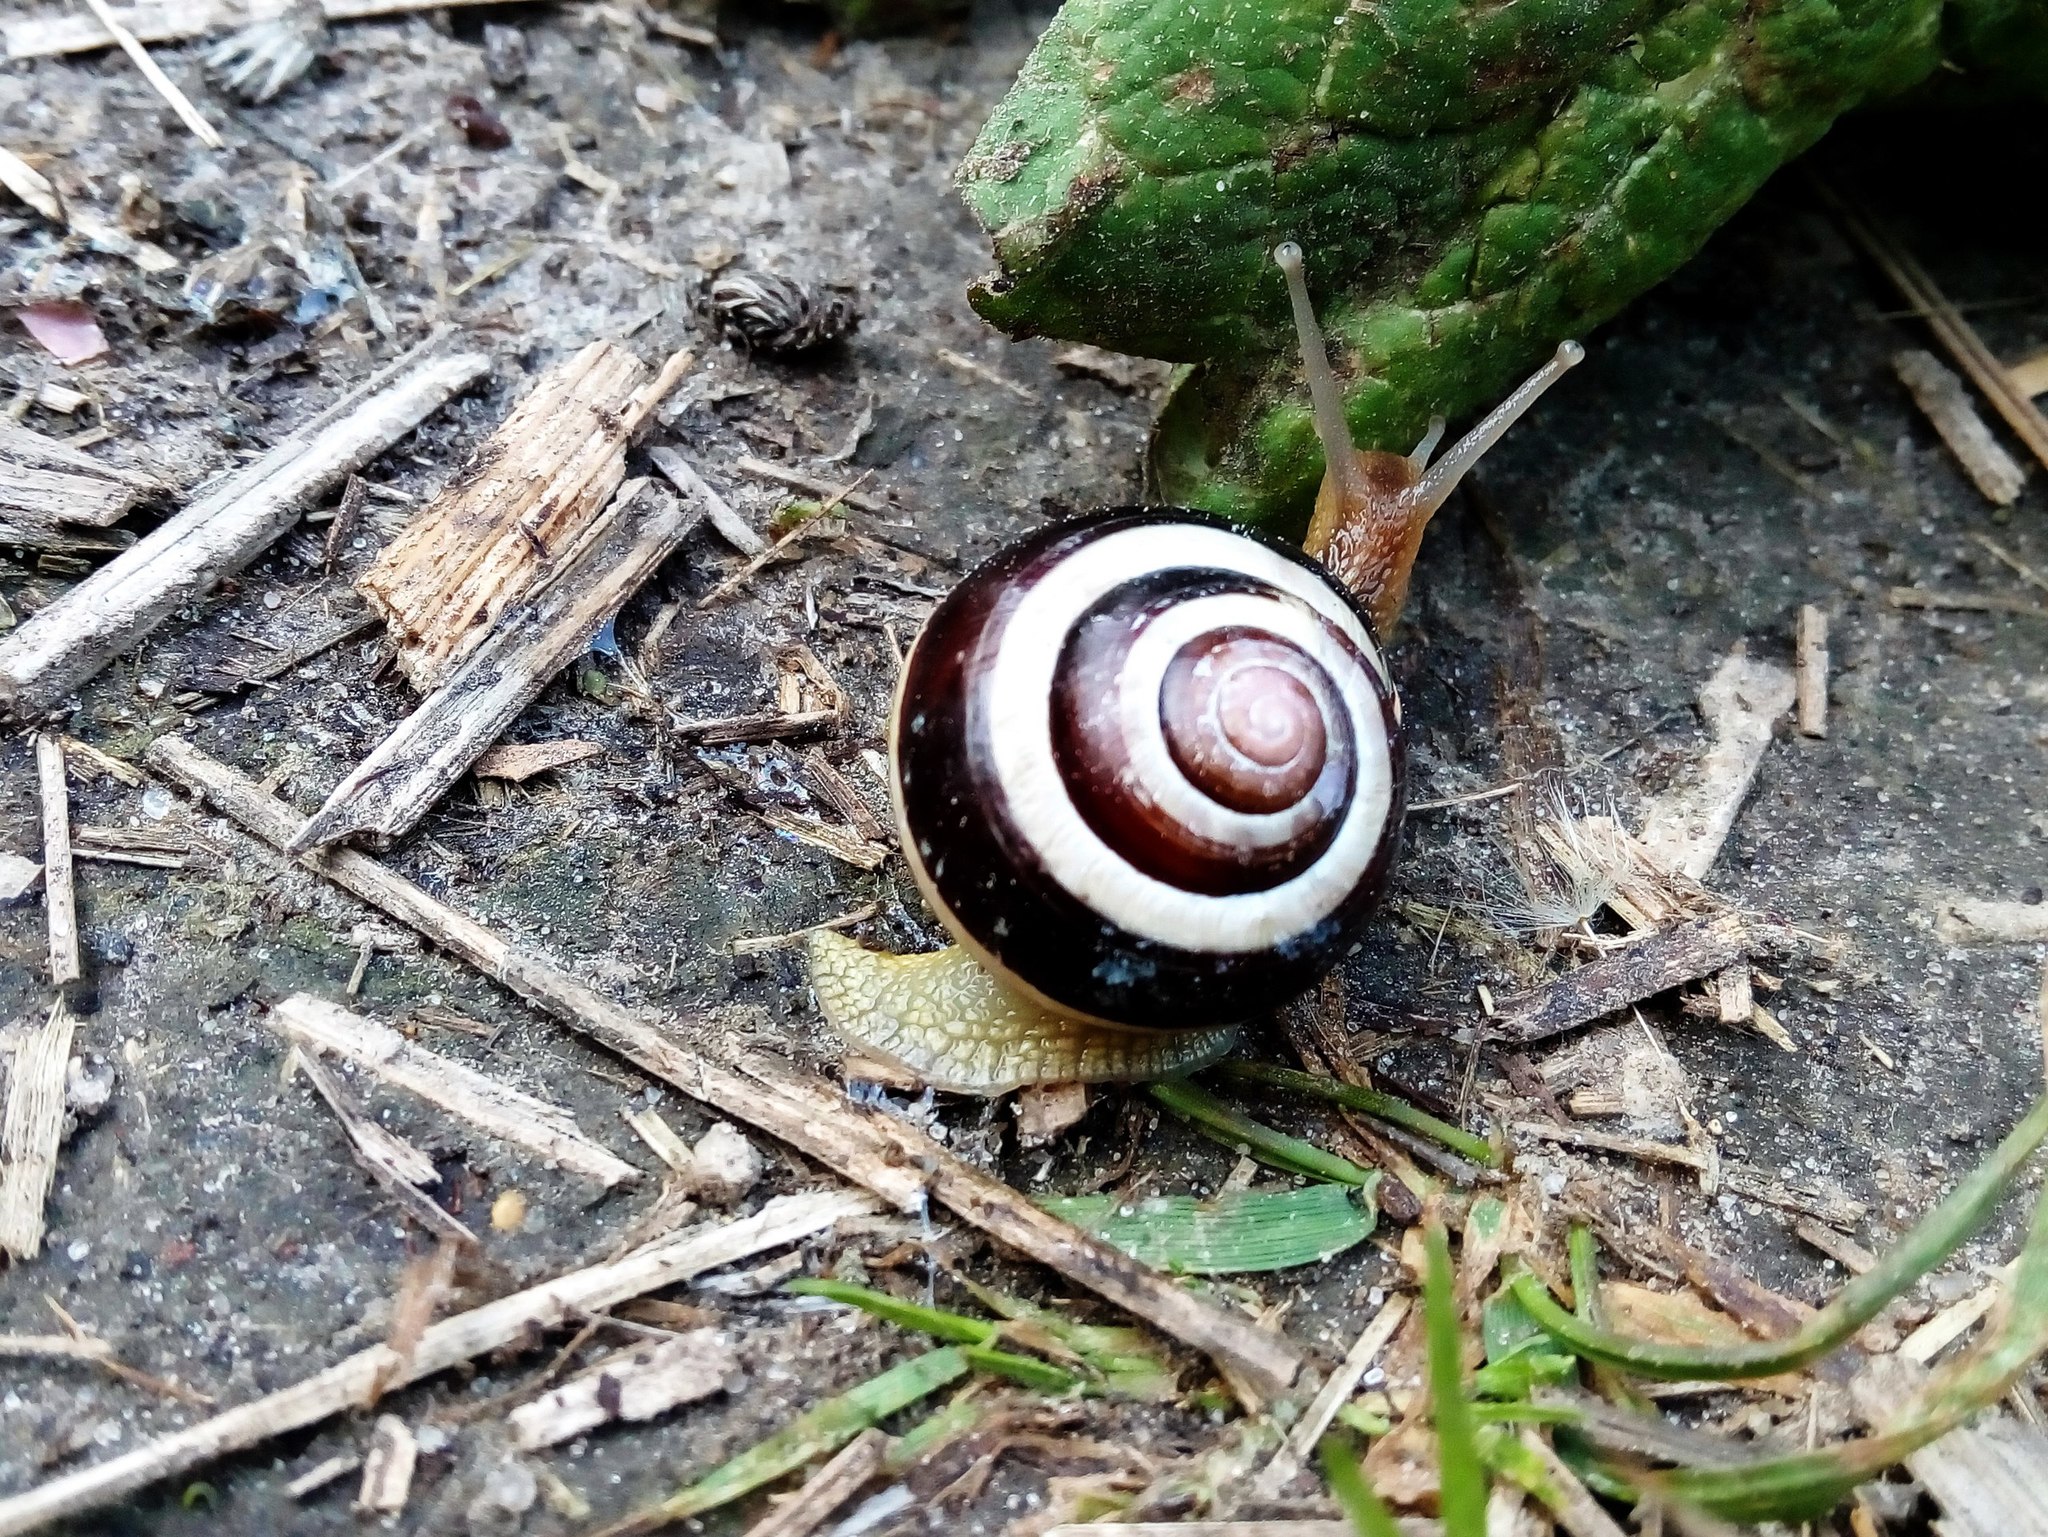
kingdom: Animalia
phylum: Mollusca
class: Gastropoda
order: Stylommatophora
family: Helicidae
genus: Cepaea
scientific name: Cepaea nemoralis
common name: Grovesnail
